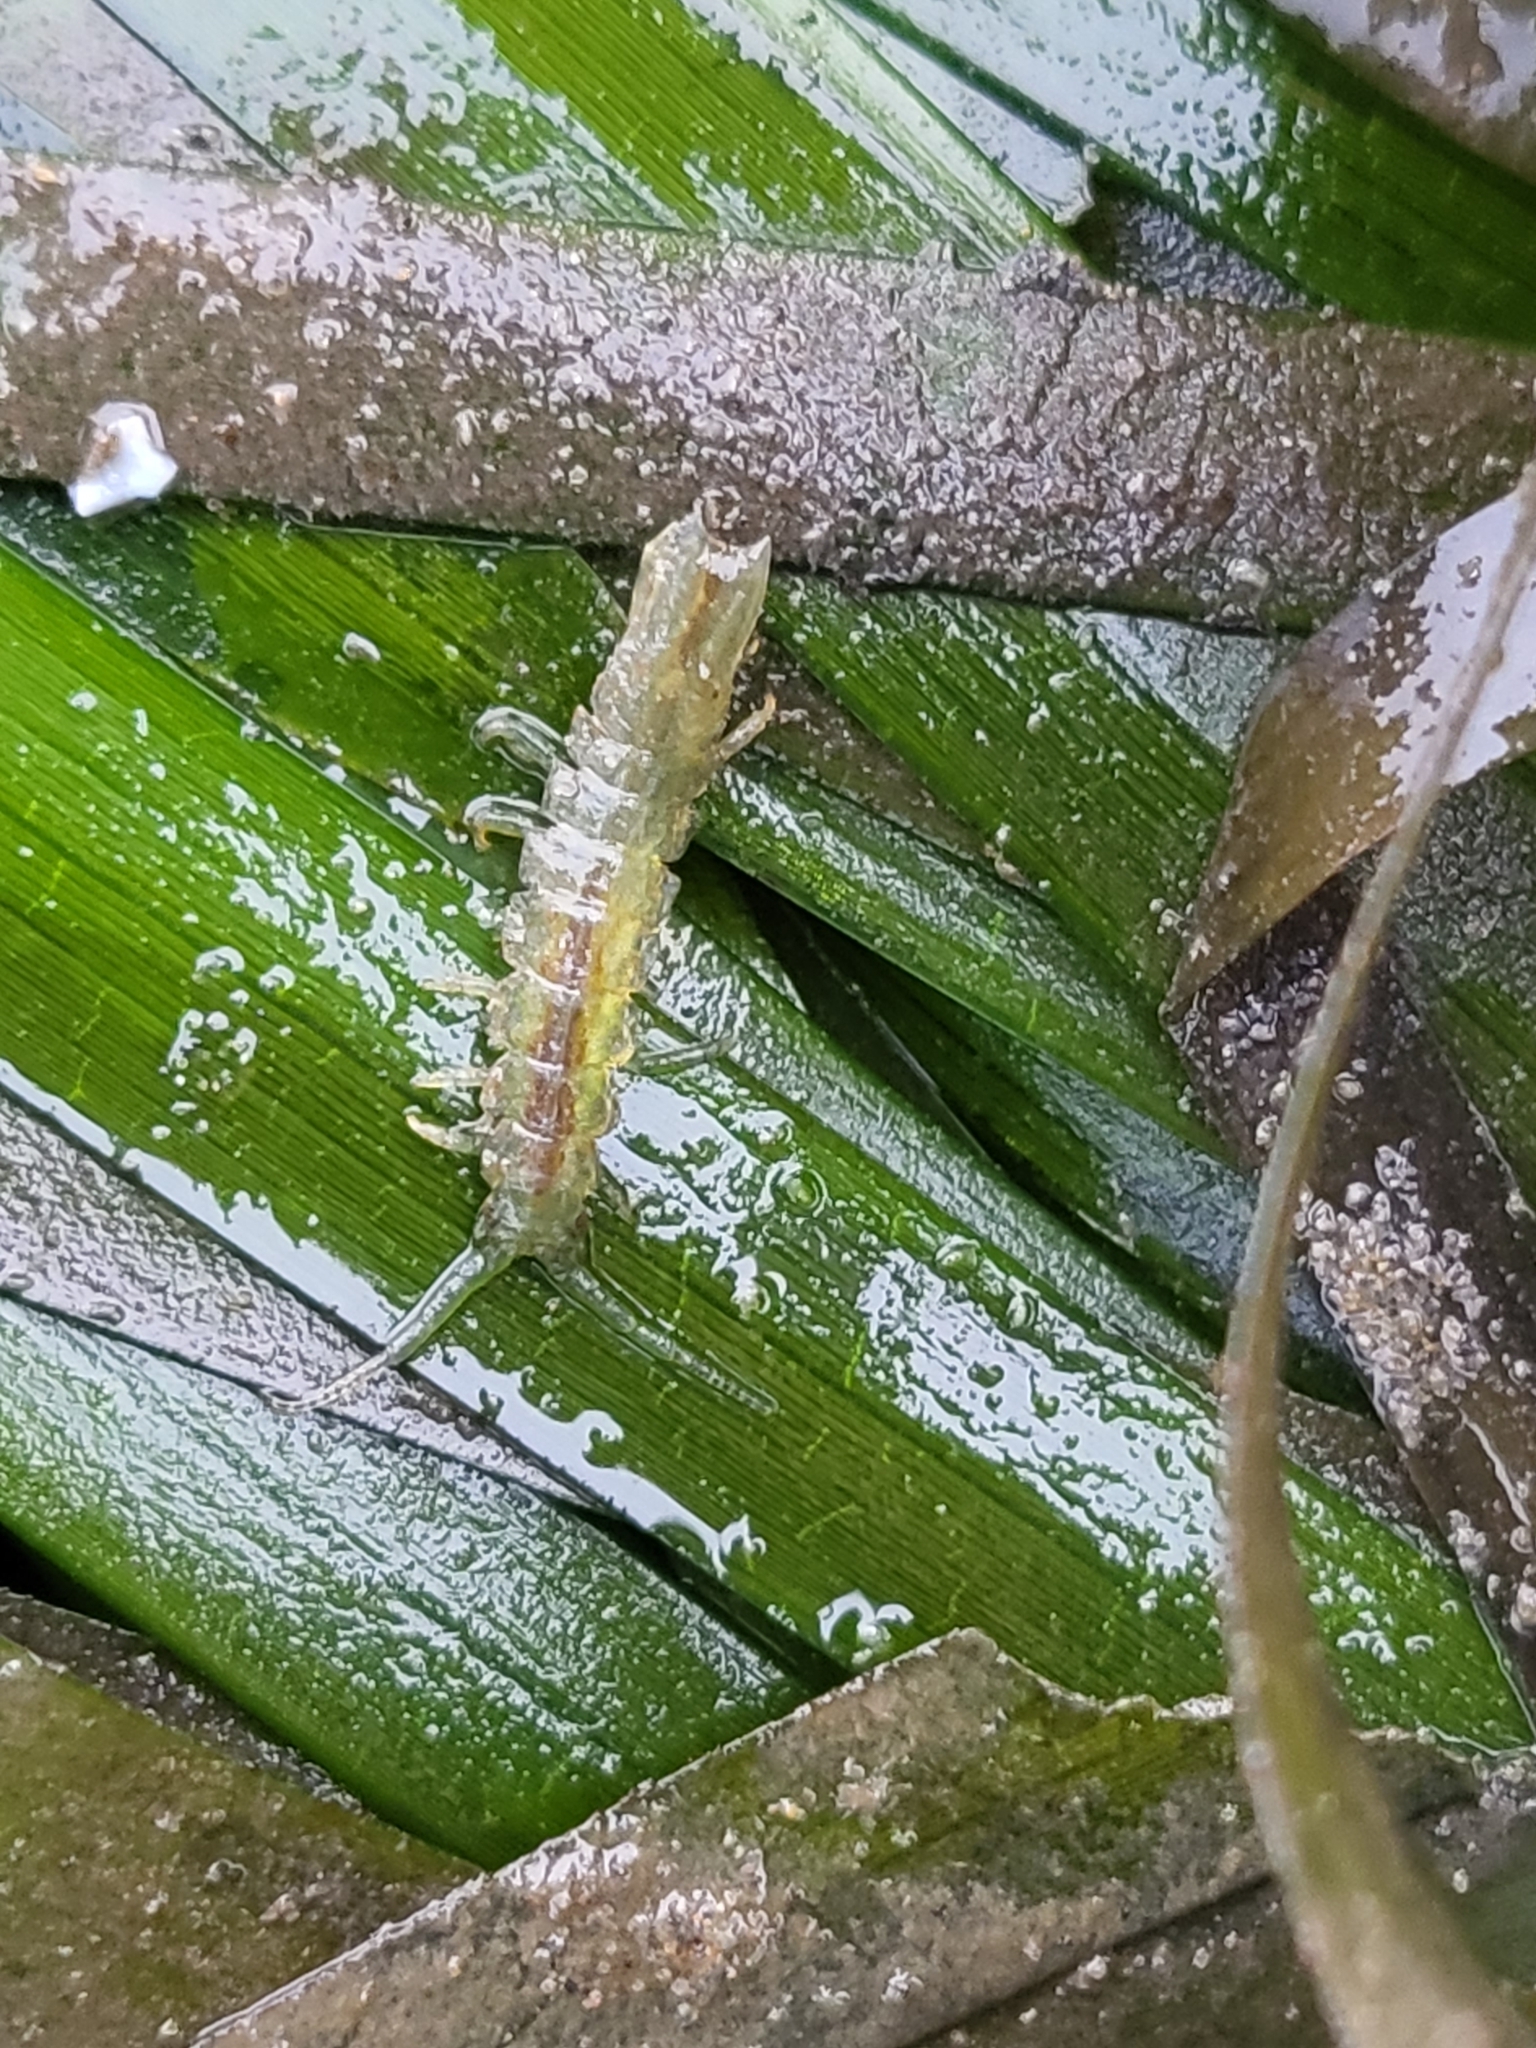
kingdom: Animalia
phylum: Arthropoda
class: Malacostraca
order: Isopoda
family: Idoteidae
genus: Pentidotea
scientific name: Pentidotea resecata
